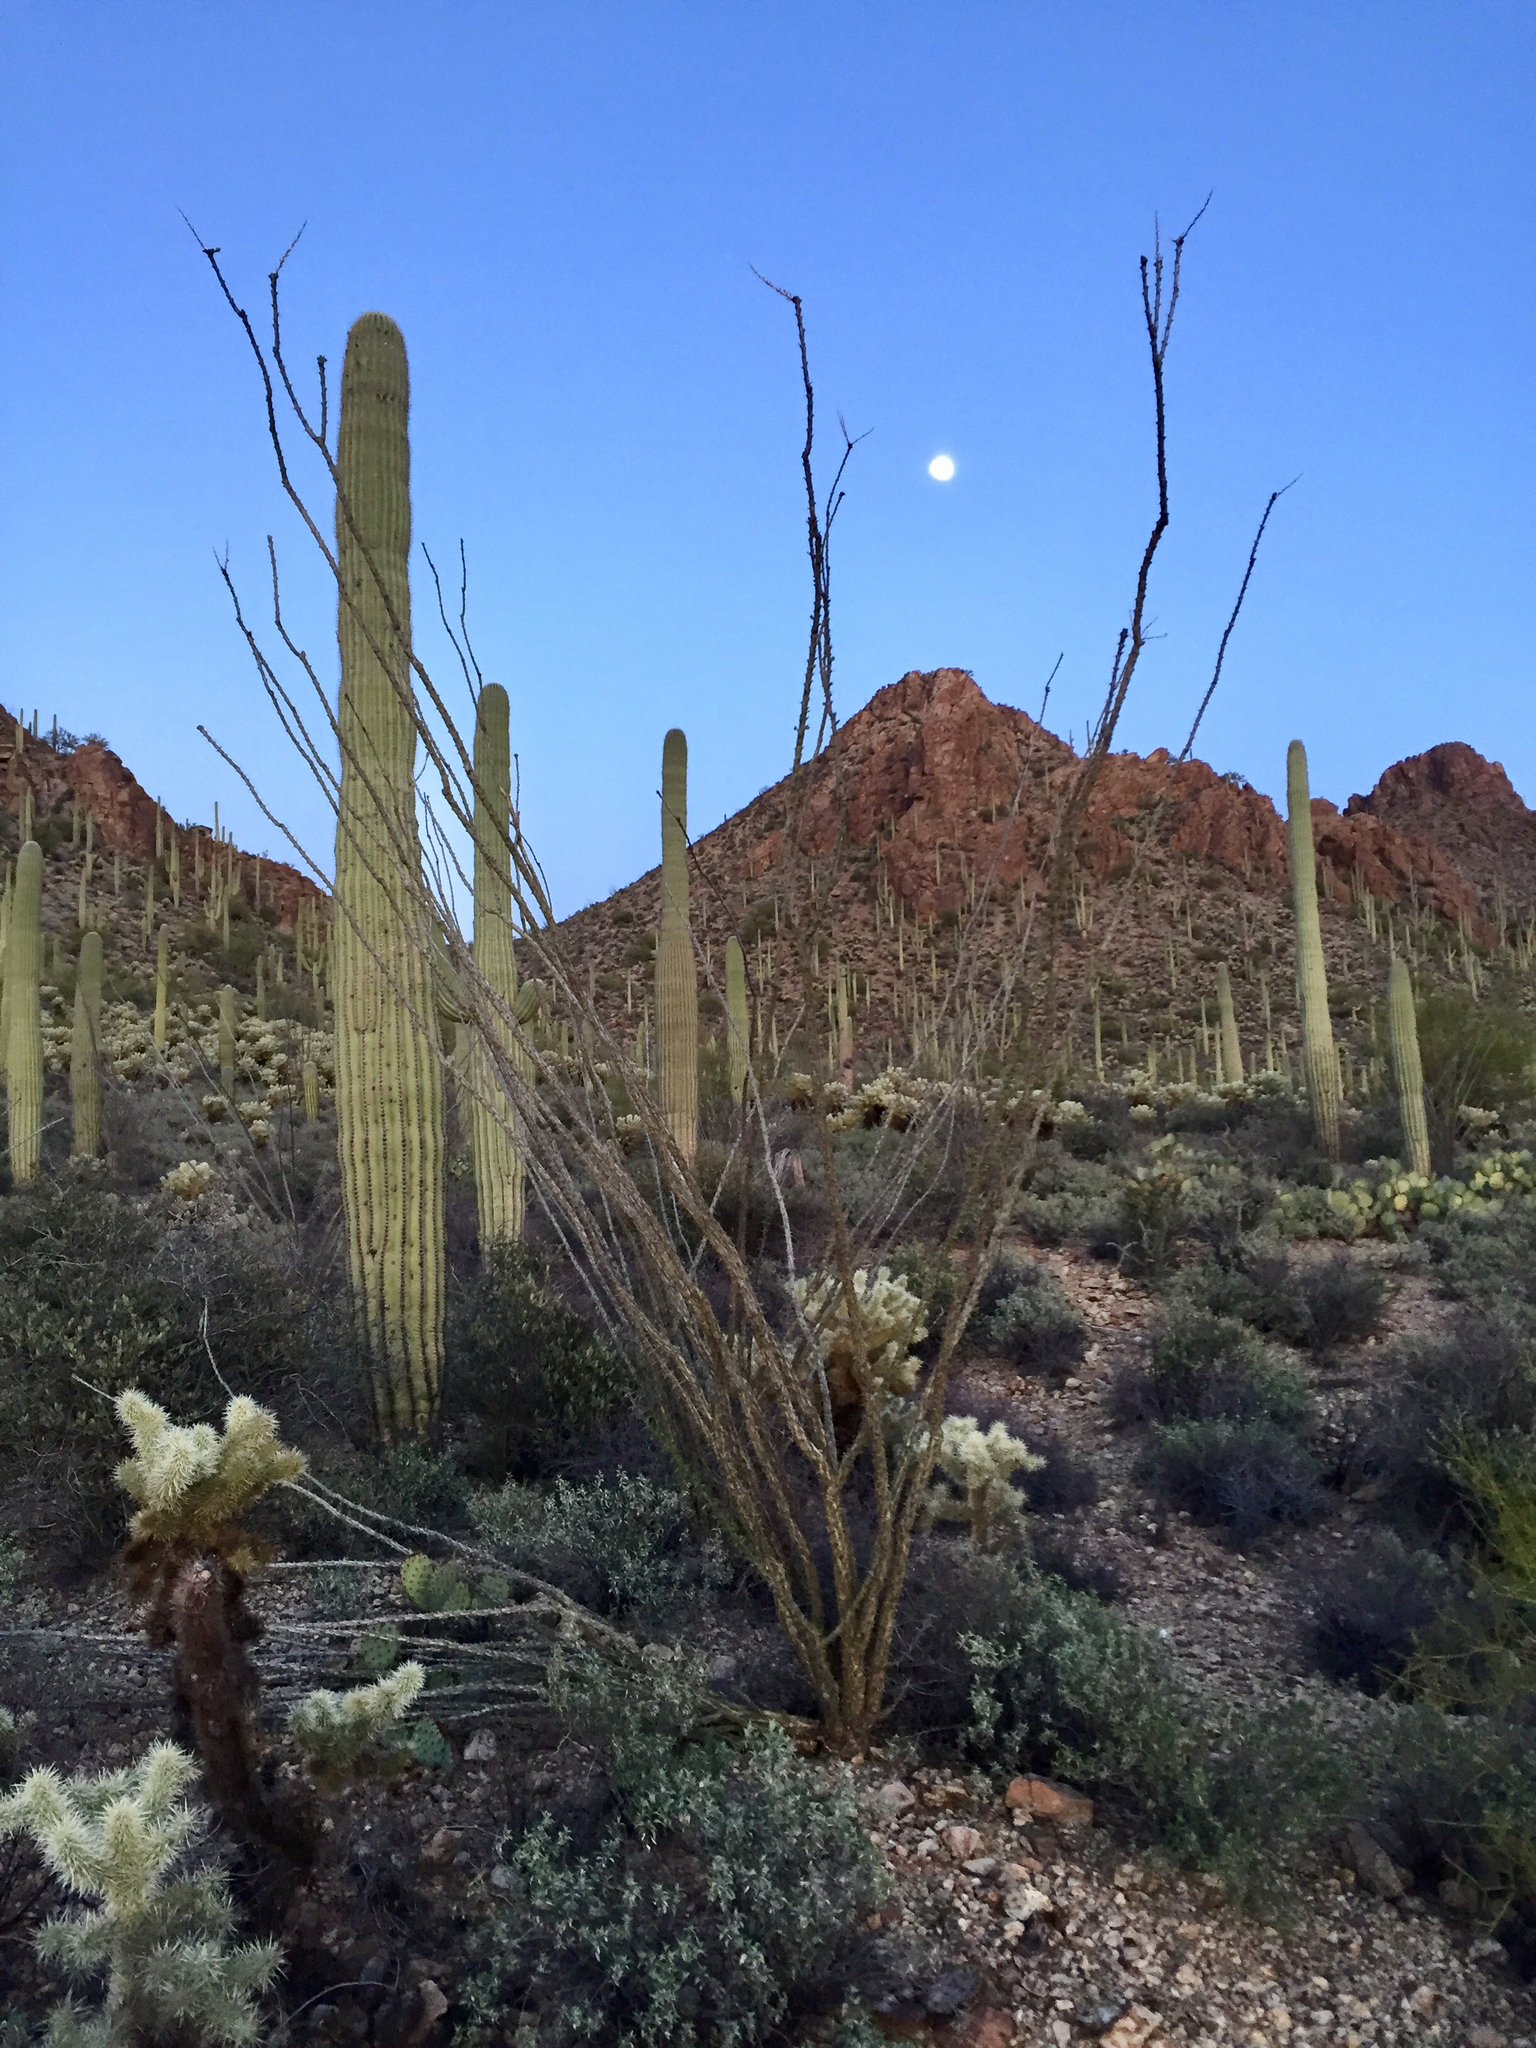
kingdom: Plantae
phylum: Tracheophyta
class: Magnoliopsida
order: Ericales
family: Fouquieriaceae
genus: Fouquieria
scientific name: Fouquieria splendens
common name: Vine-cactus
